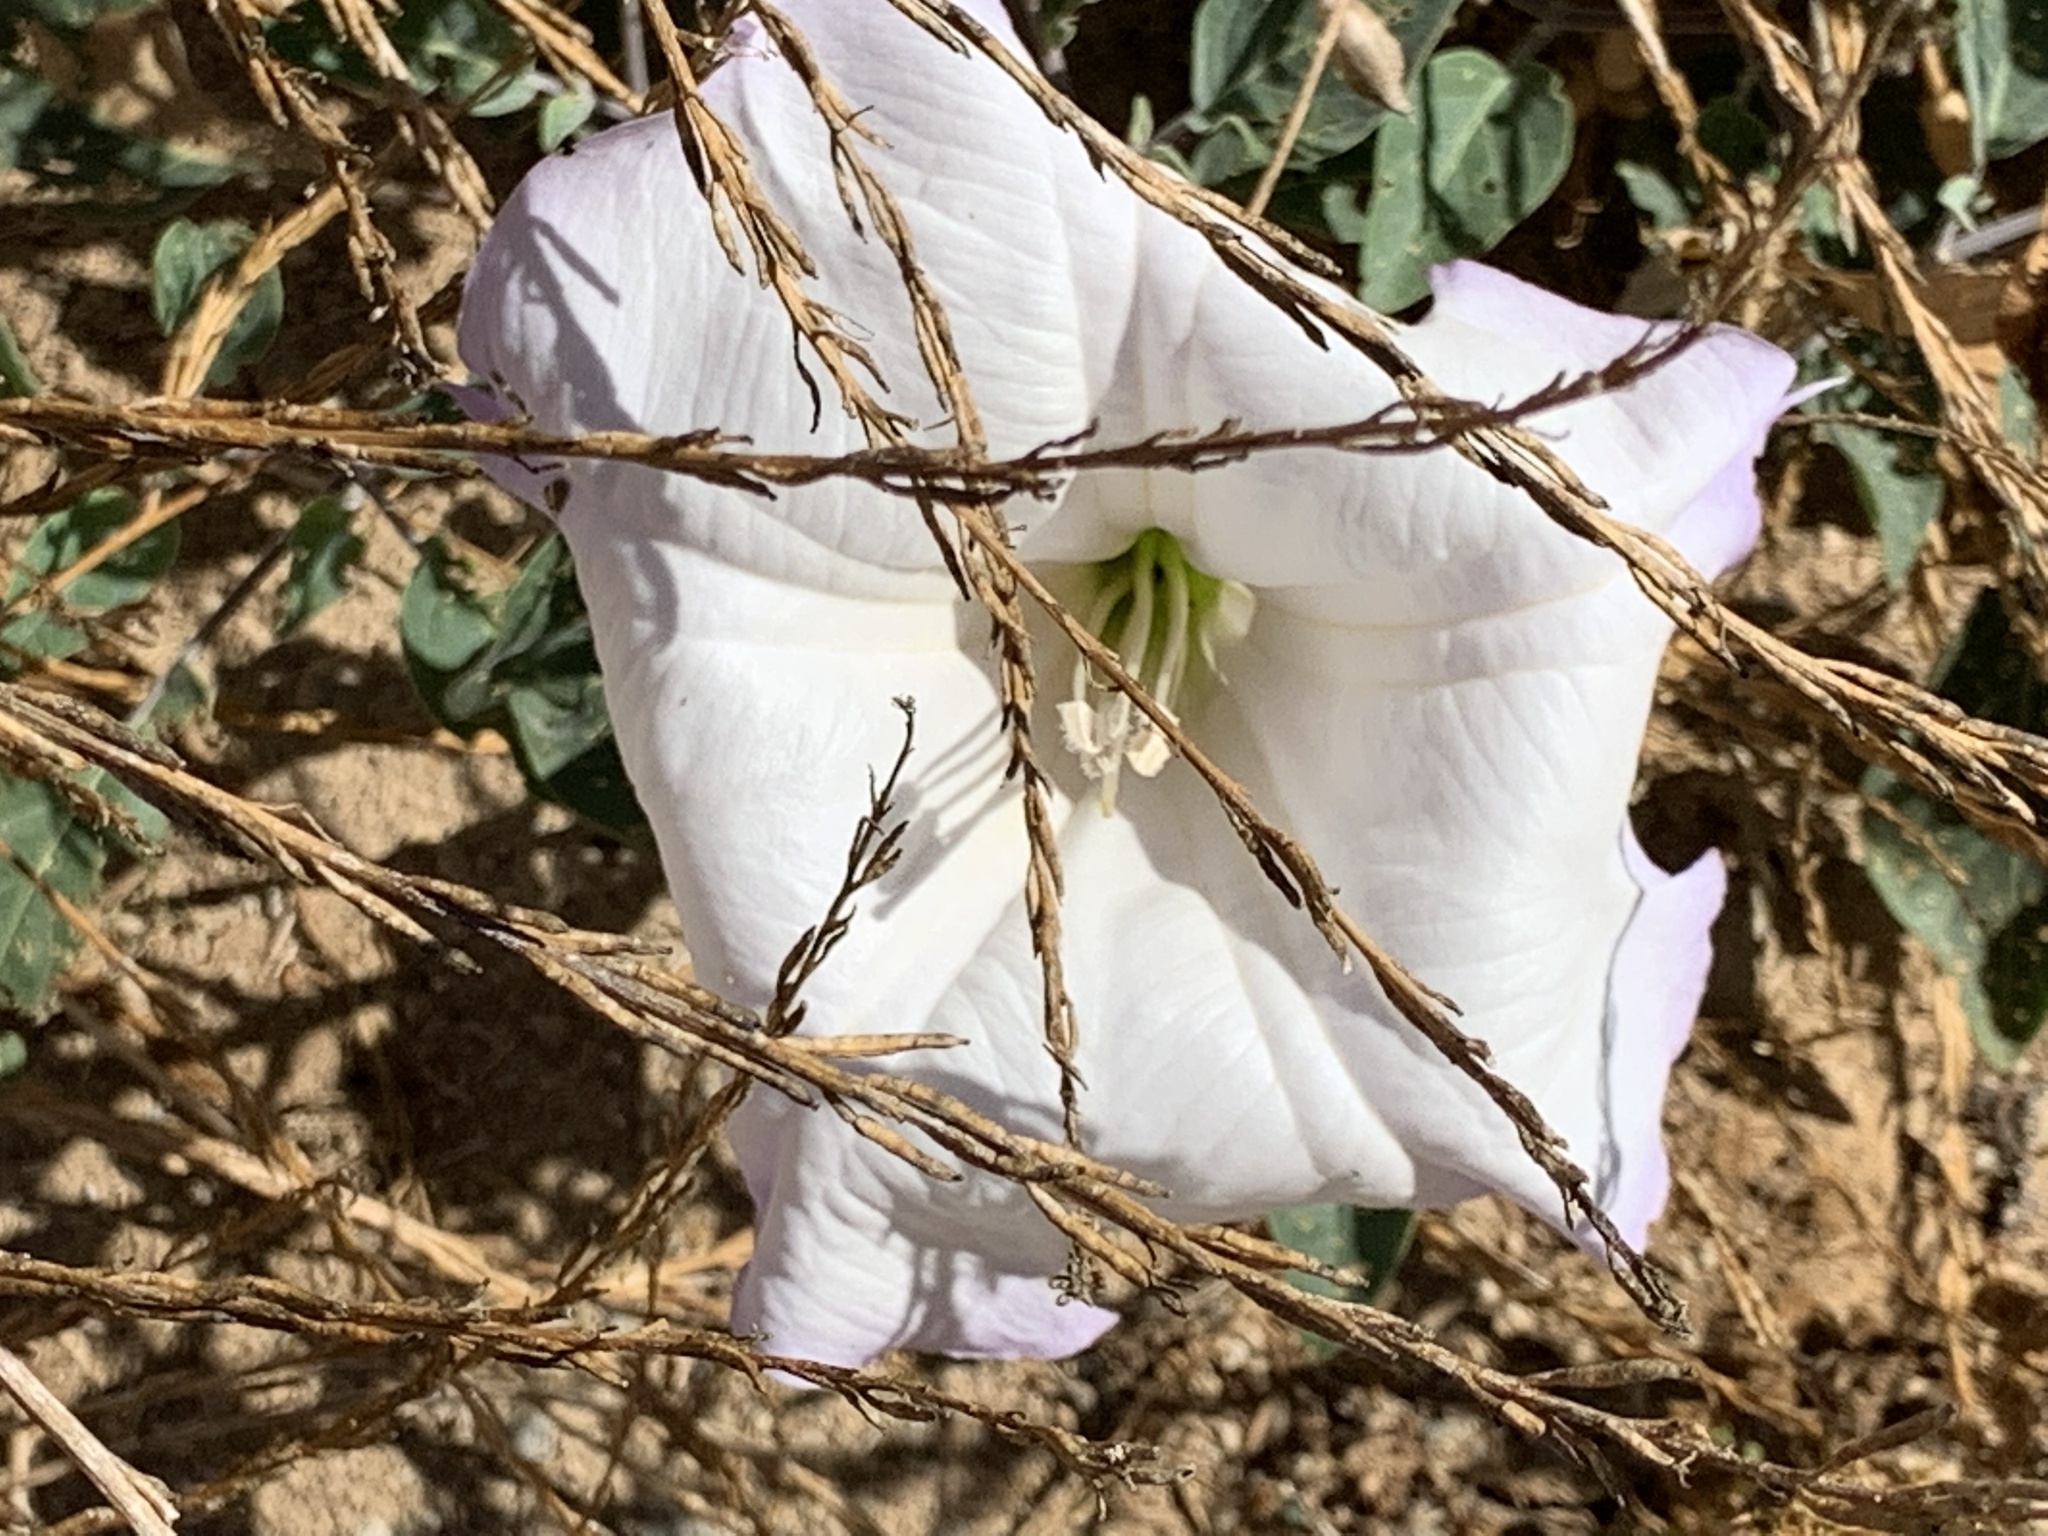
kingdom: Plantae
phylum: Tracheophyta
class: Magnoliopsida
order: Solanales
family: Solanaceae
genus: Datura
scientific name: Datura wrightii
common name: Sacred thorn-apple
